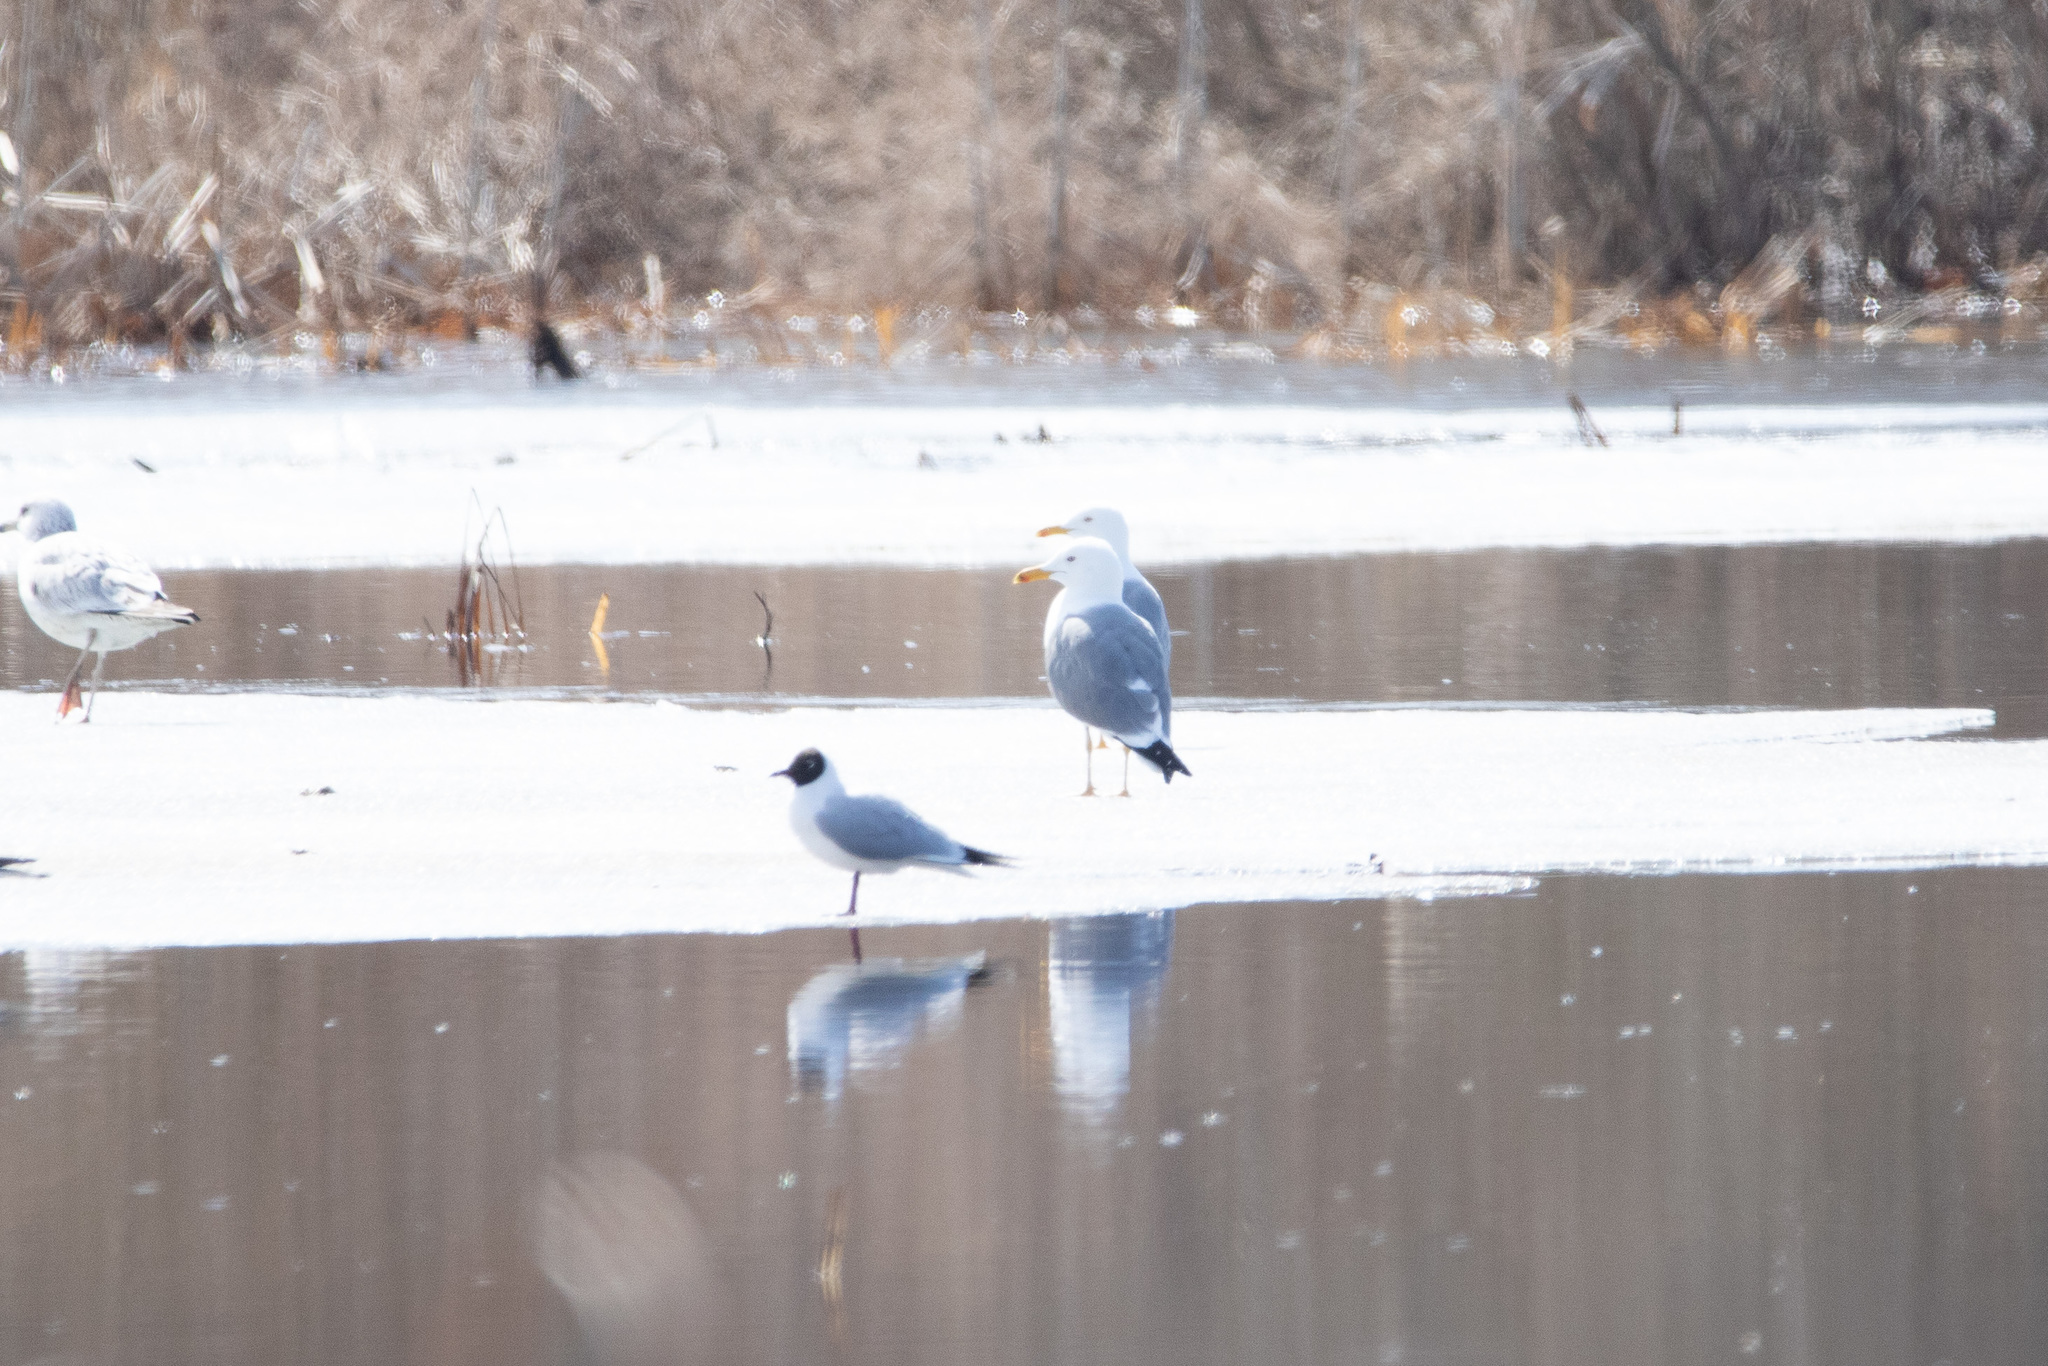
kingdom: Animalia
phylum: Chordata
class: Aves
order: Charadriiformes
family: Laridae
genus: Larus
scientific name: Larus cachinnans
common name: Caspian gull
